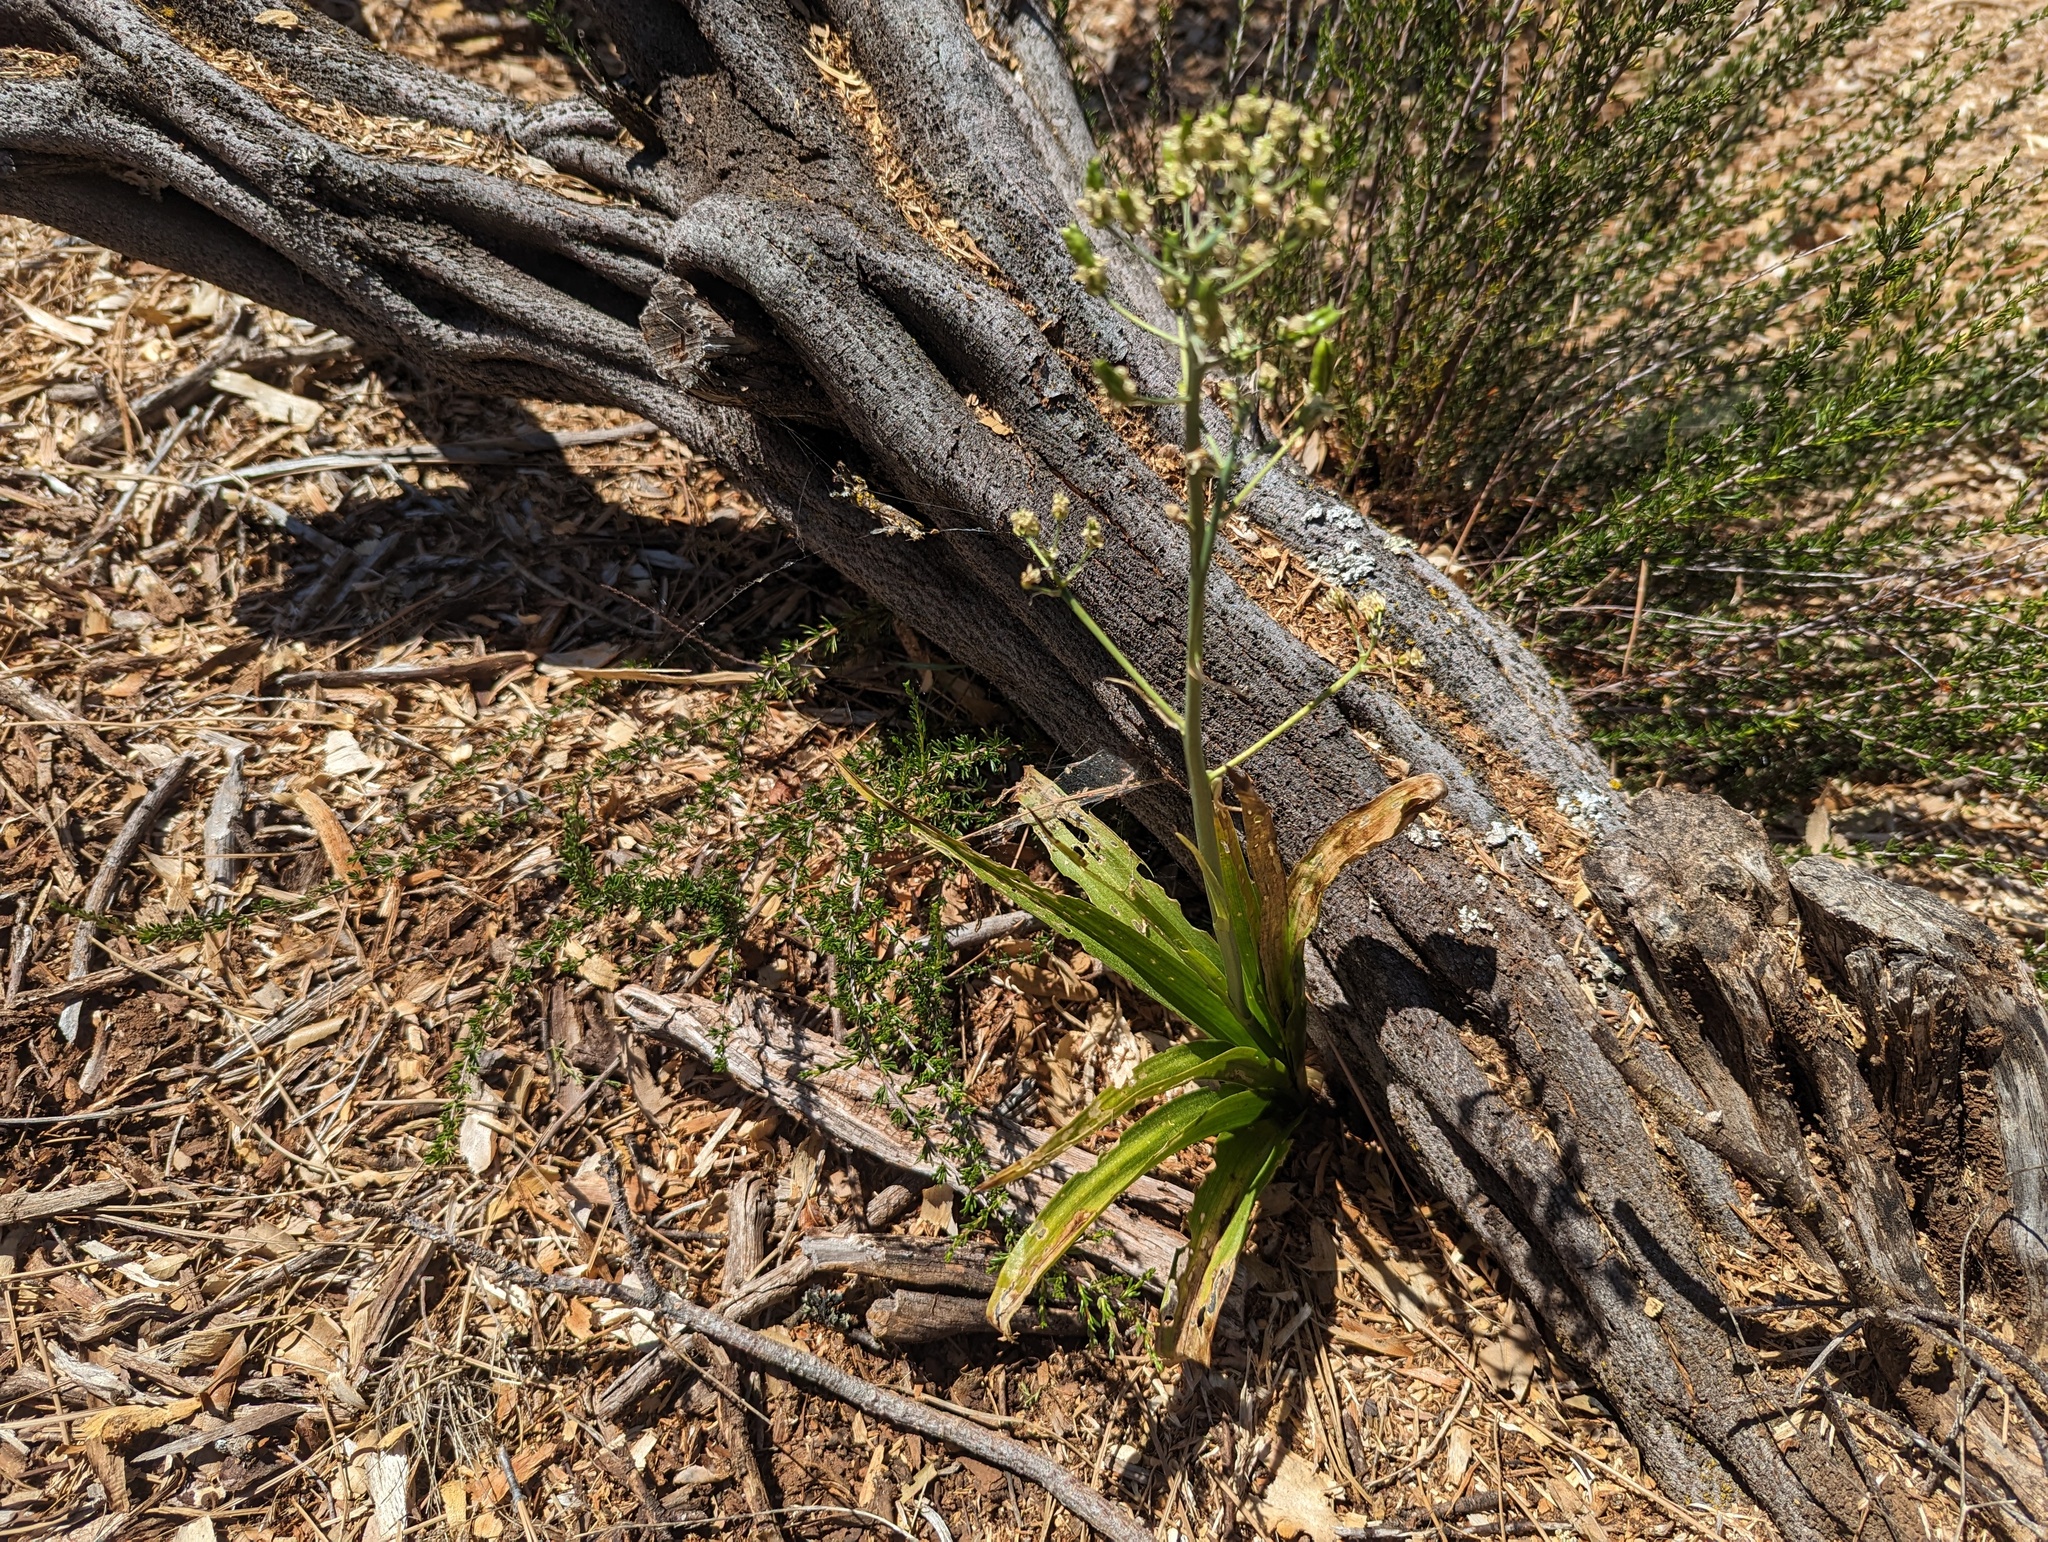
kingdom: Plantae
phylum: Tracheophyta
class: Liliopsida
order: Liliales
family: Melanthiaceae
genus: Toxicoscordion
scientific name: Toxicoscordion fremontii
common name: Fremont's death camas
